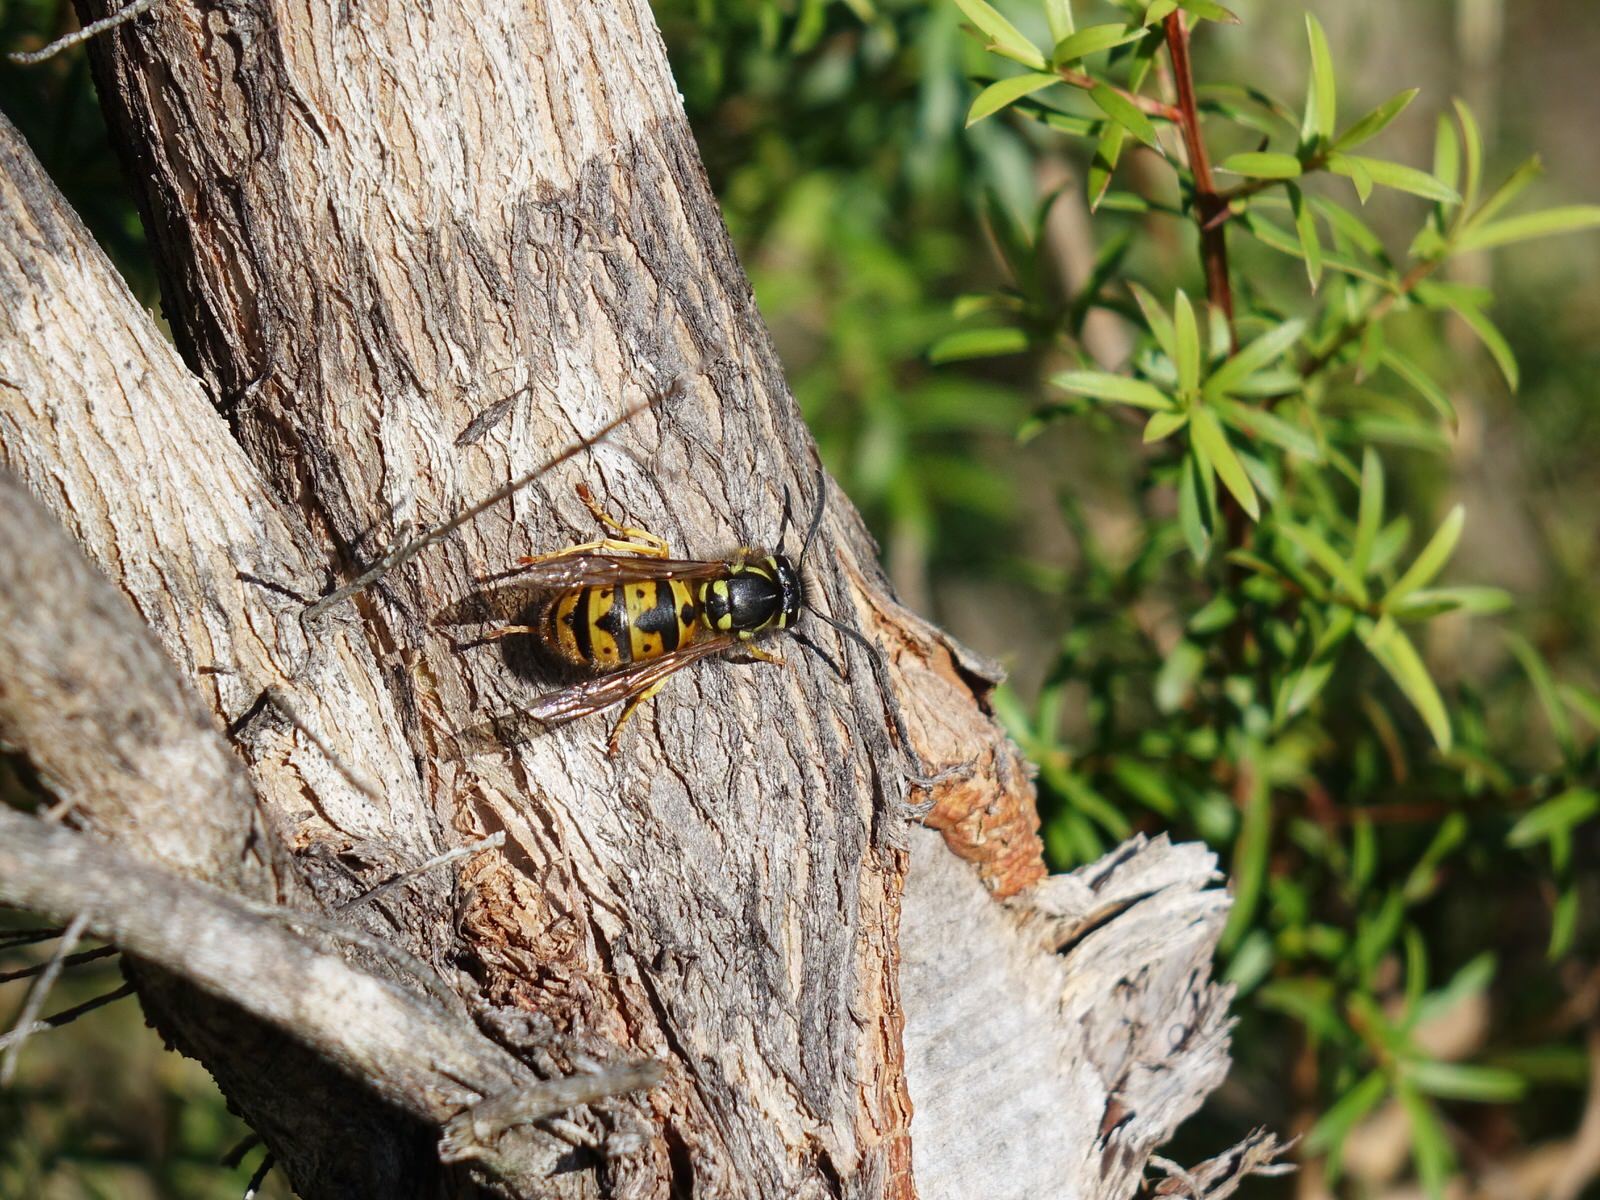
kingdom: Animalia
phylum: Arthropoda
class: Insecta
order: Hymenoptera
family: Vespidae
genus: Vespula
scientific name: Vespula germanica
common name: German wasp
